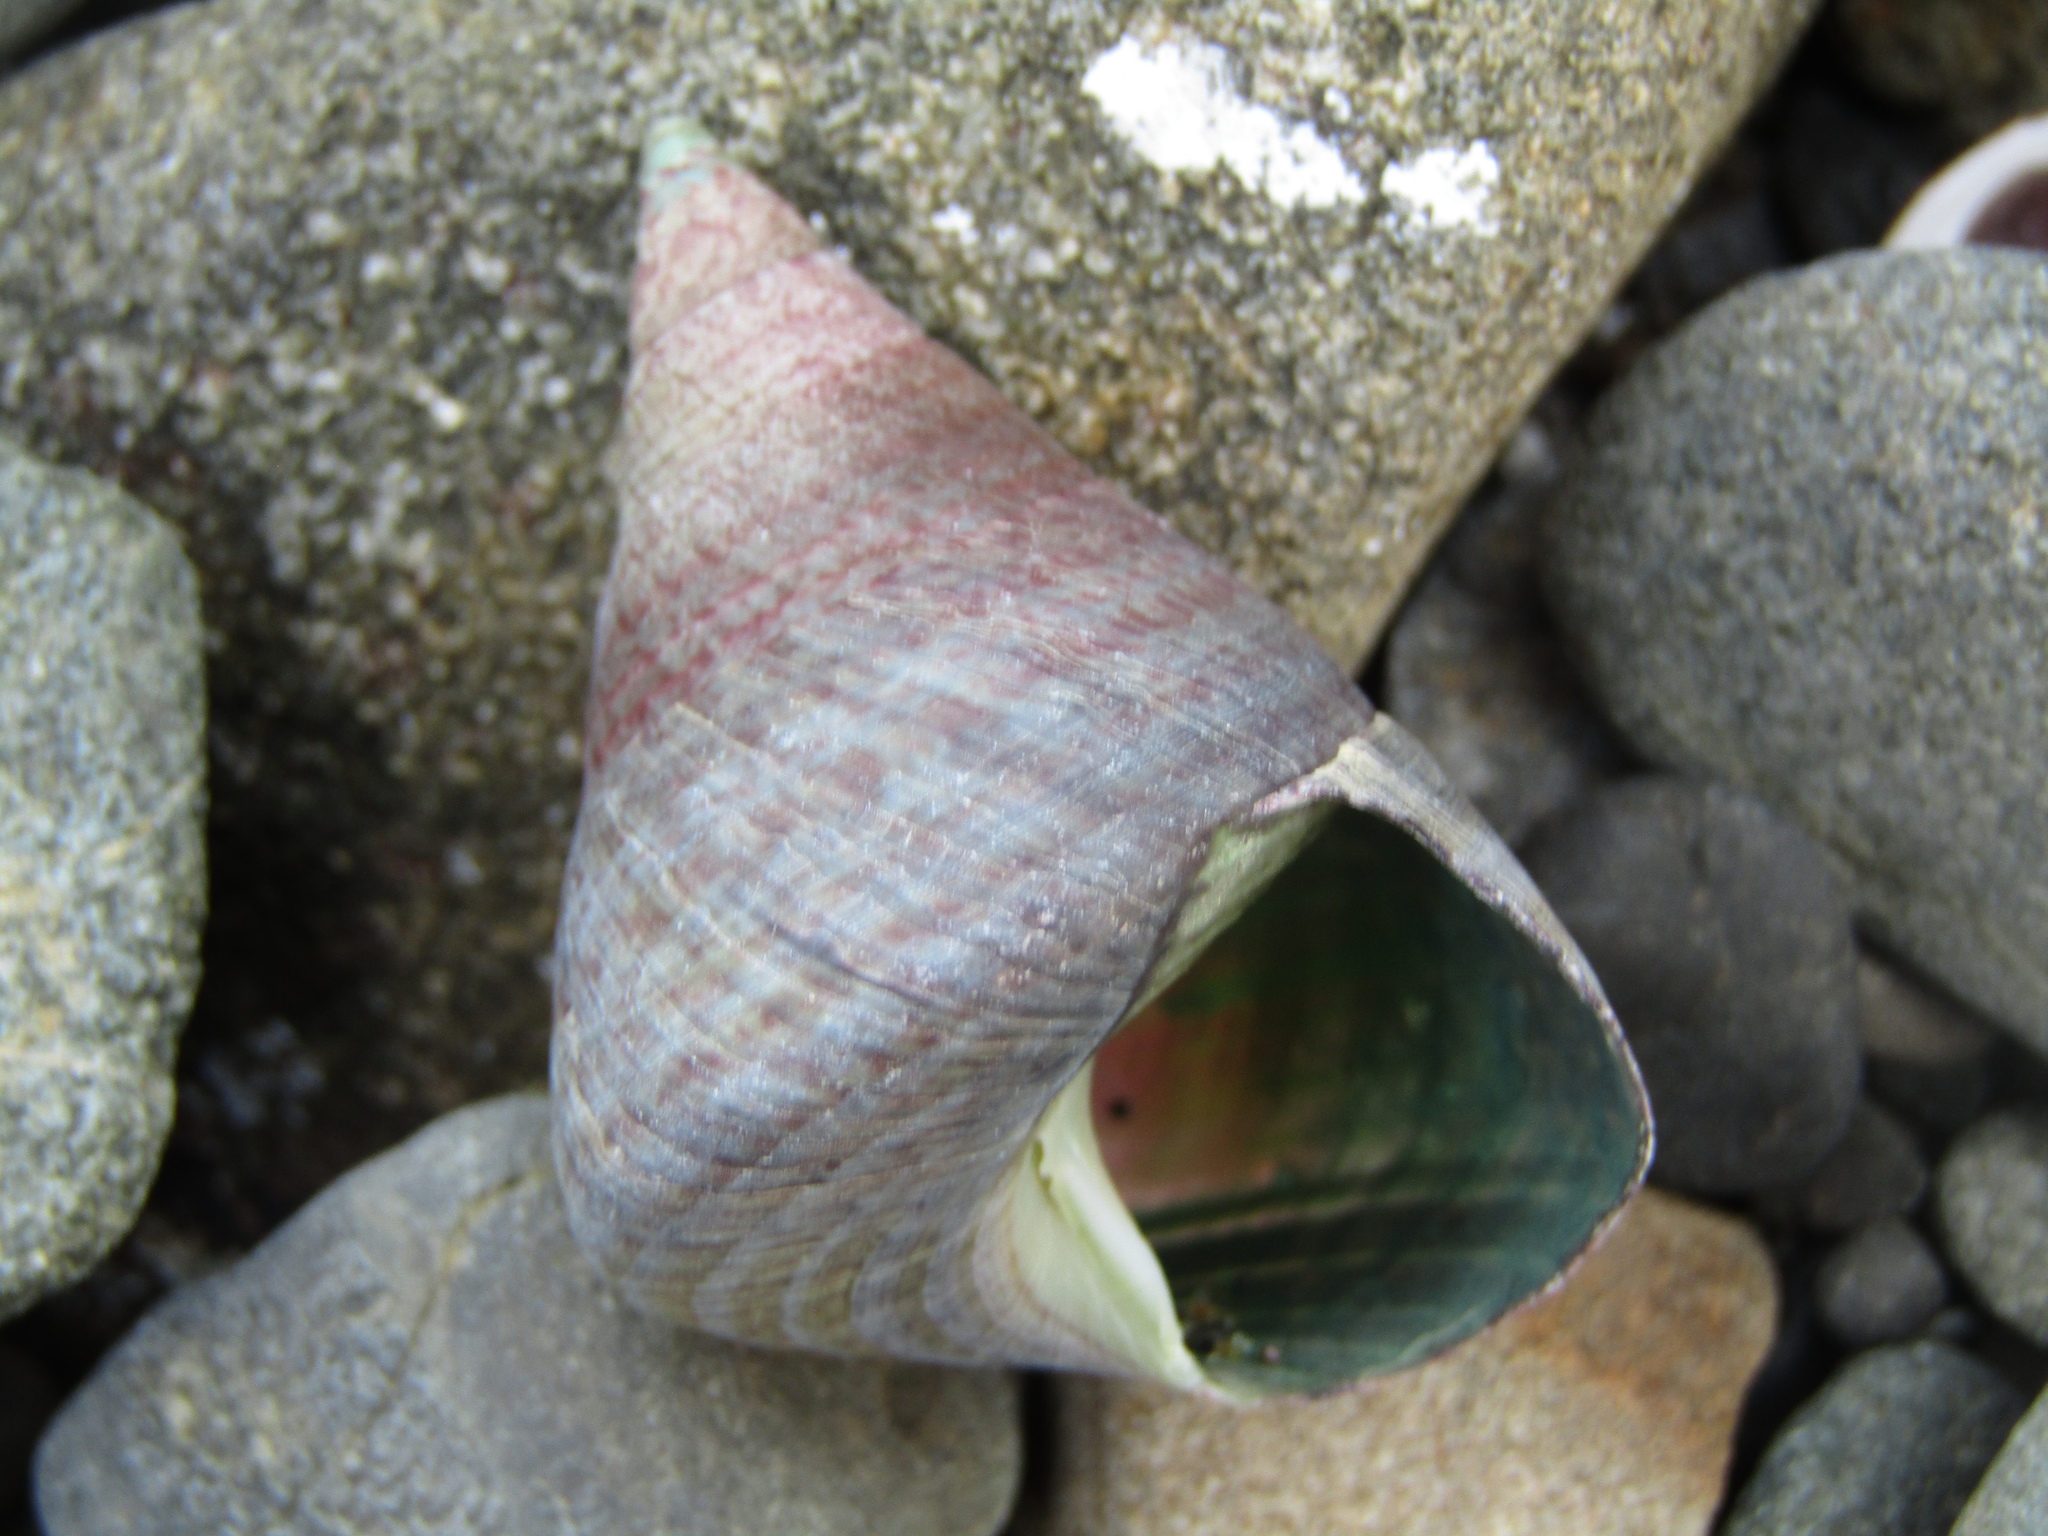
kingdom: Animalia
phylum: Mollusca
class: Gastropoda
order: Trochida
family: Trochidae
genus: Cantharidus
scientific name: Cantharidus opalus
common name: Opal jewel topsnail
